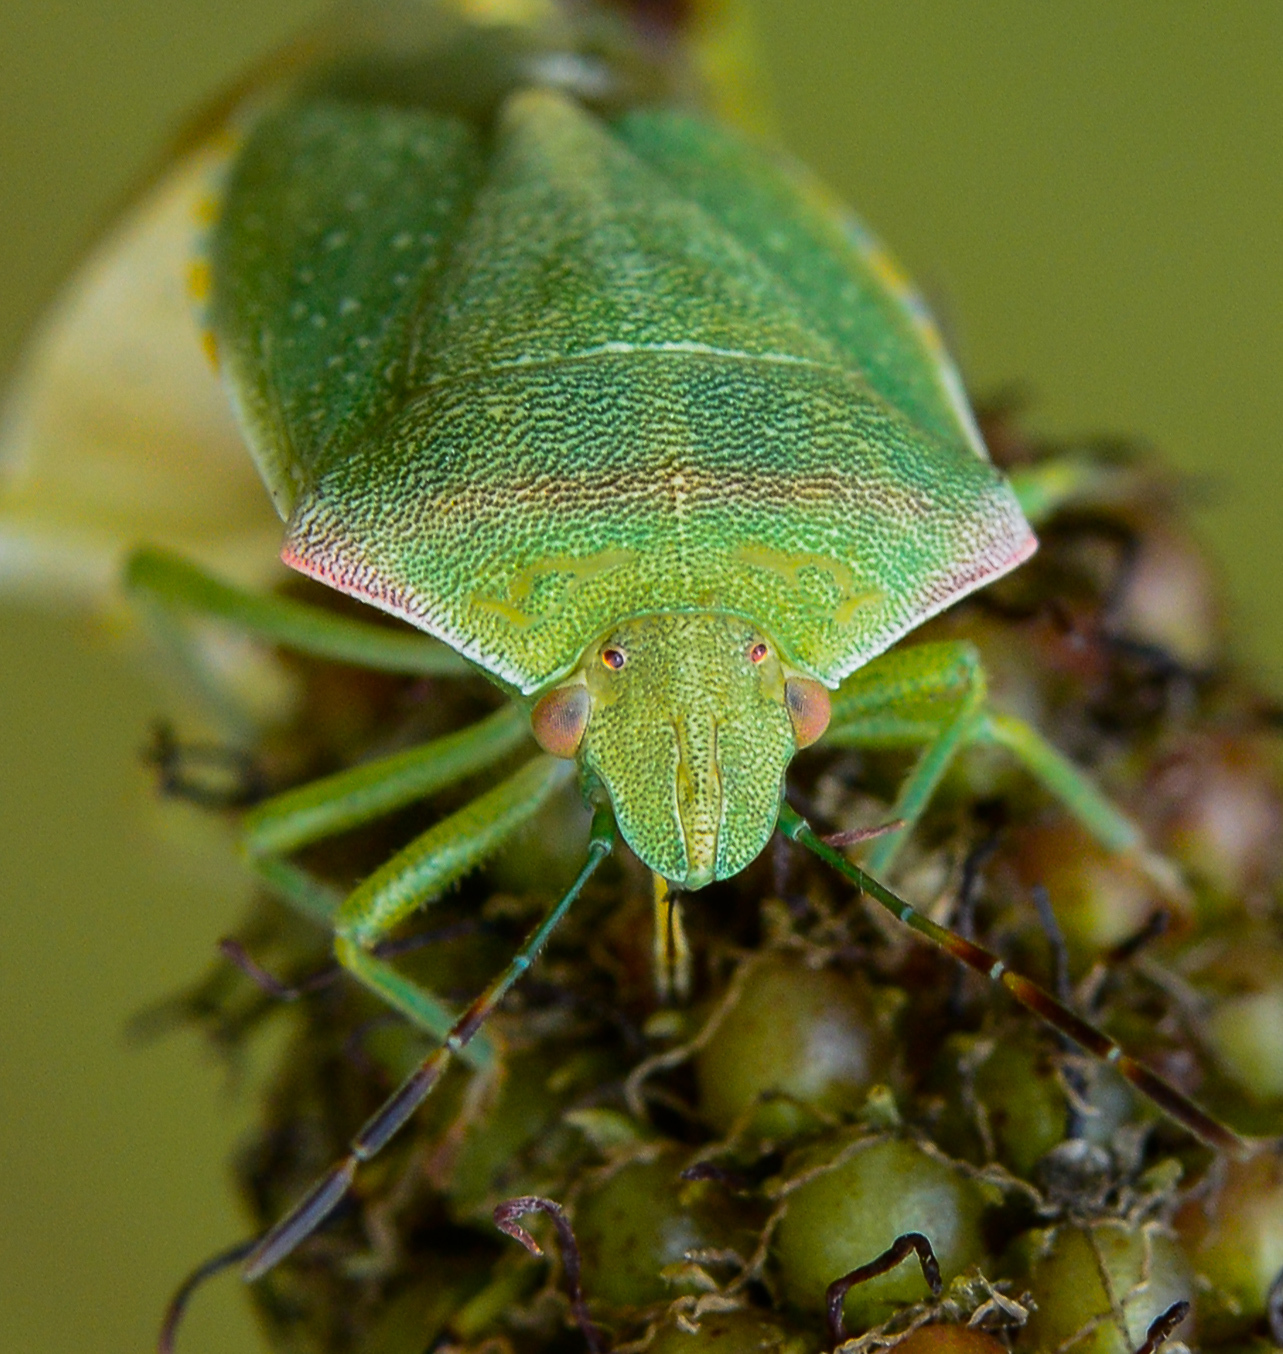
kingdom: Animalia
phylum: Arthropoda
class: Insecta
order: Hemiptera
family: Pentatomidae
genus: Thyanta
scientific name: Thyanta custator
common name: Stink bug
